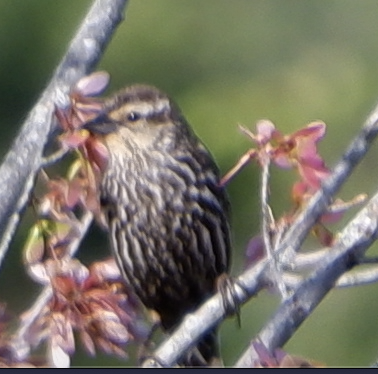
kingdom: Animalia
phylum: Chordata
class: Aves
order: Passeriformes
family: Icteridae
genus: Agelaius
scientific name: Agelaius phoeniceus
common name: Red-winged blackbird
